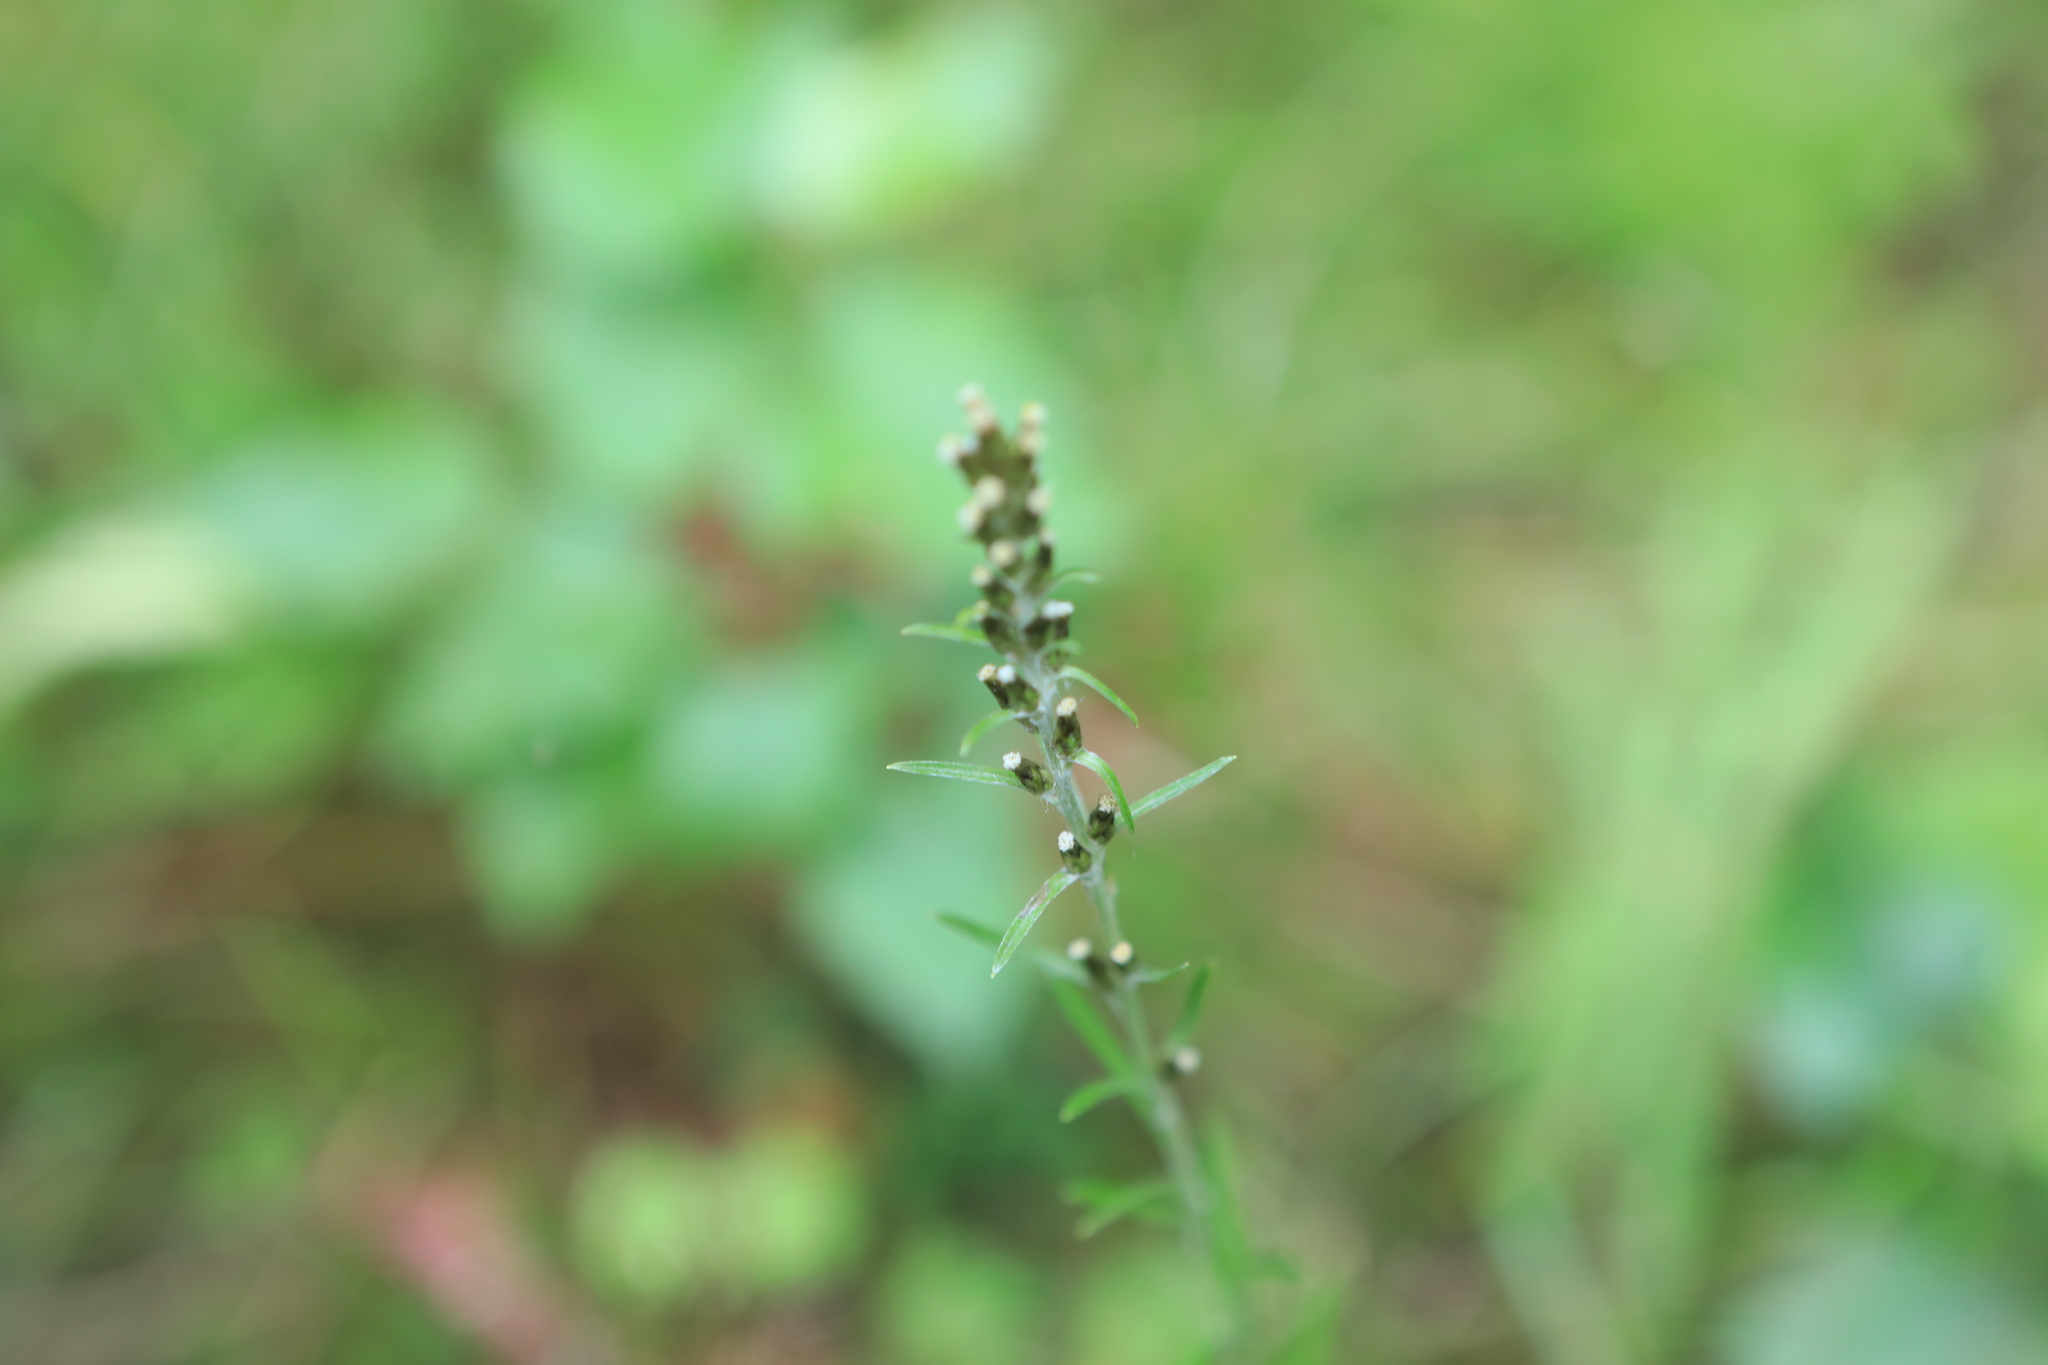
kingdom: Plantae
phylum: Tracheophyta
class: Magnoliopsida
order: Asterales
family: Asteraceae
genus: Omalotheca
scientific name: Omalotheca sylvatica
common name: Heath cudweed
